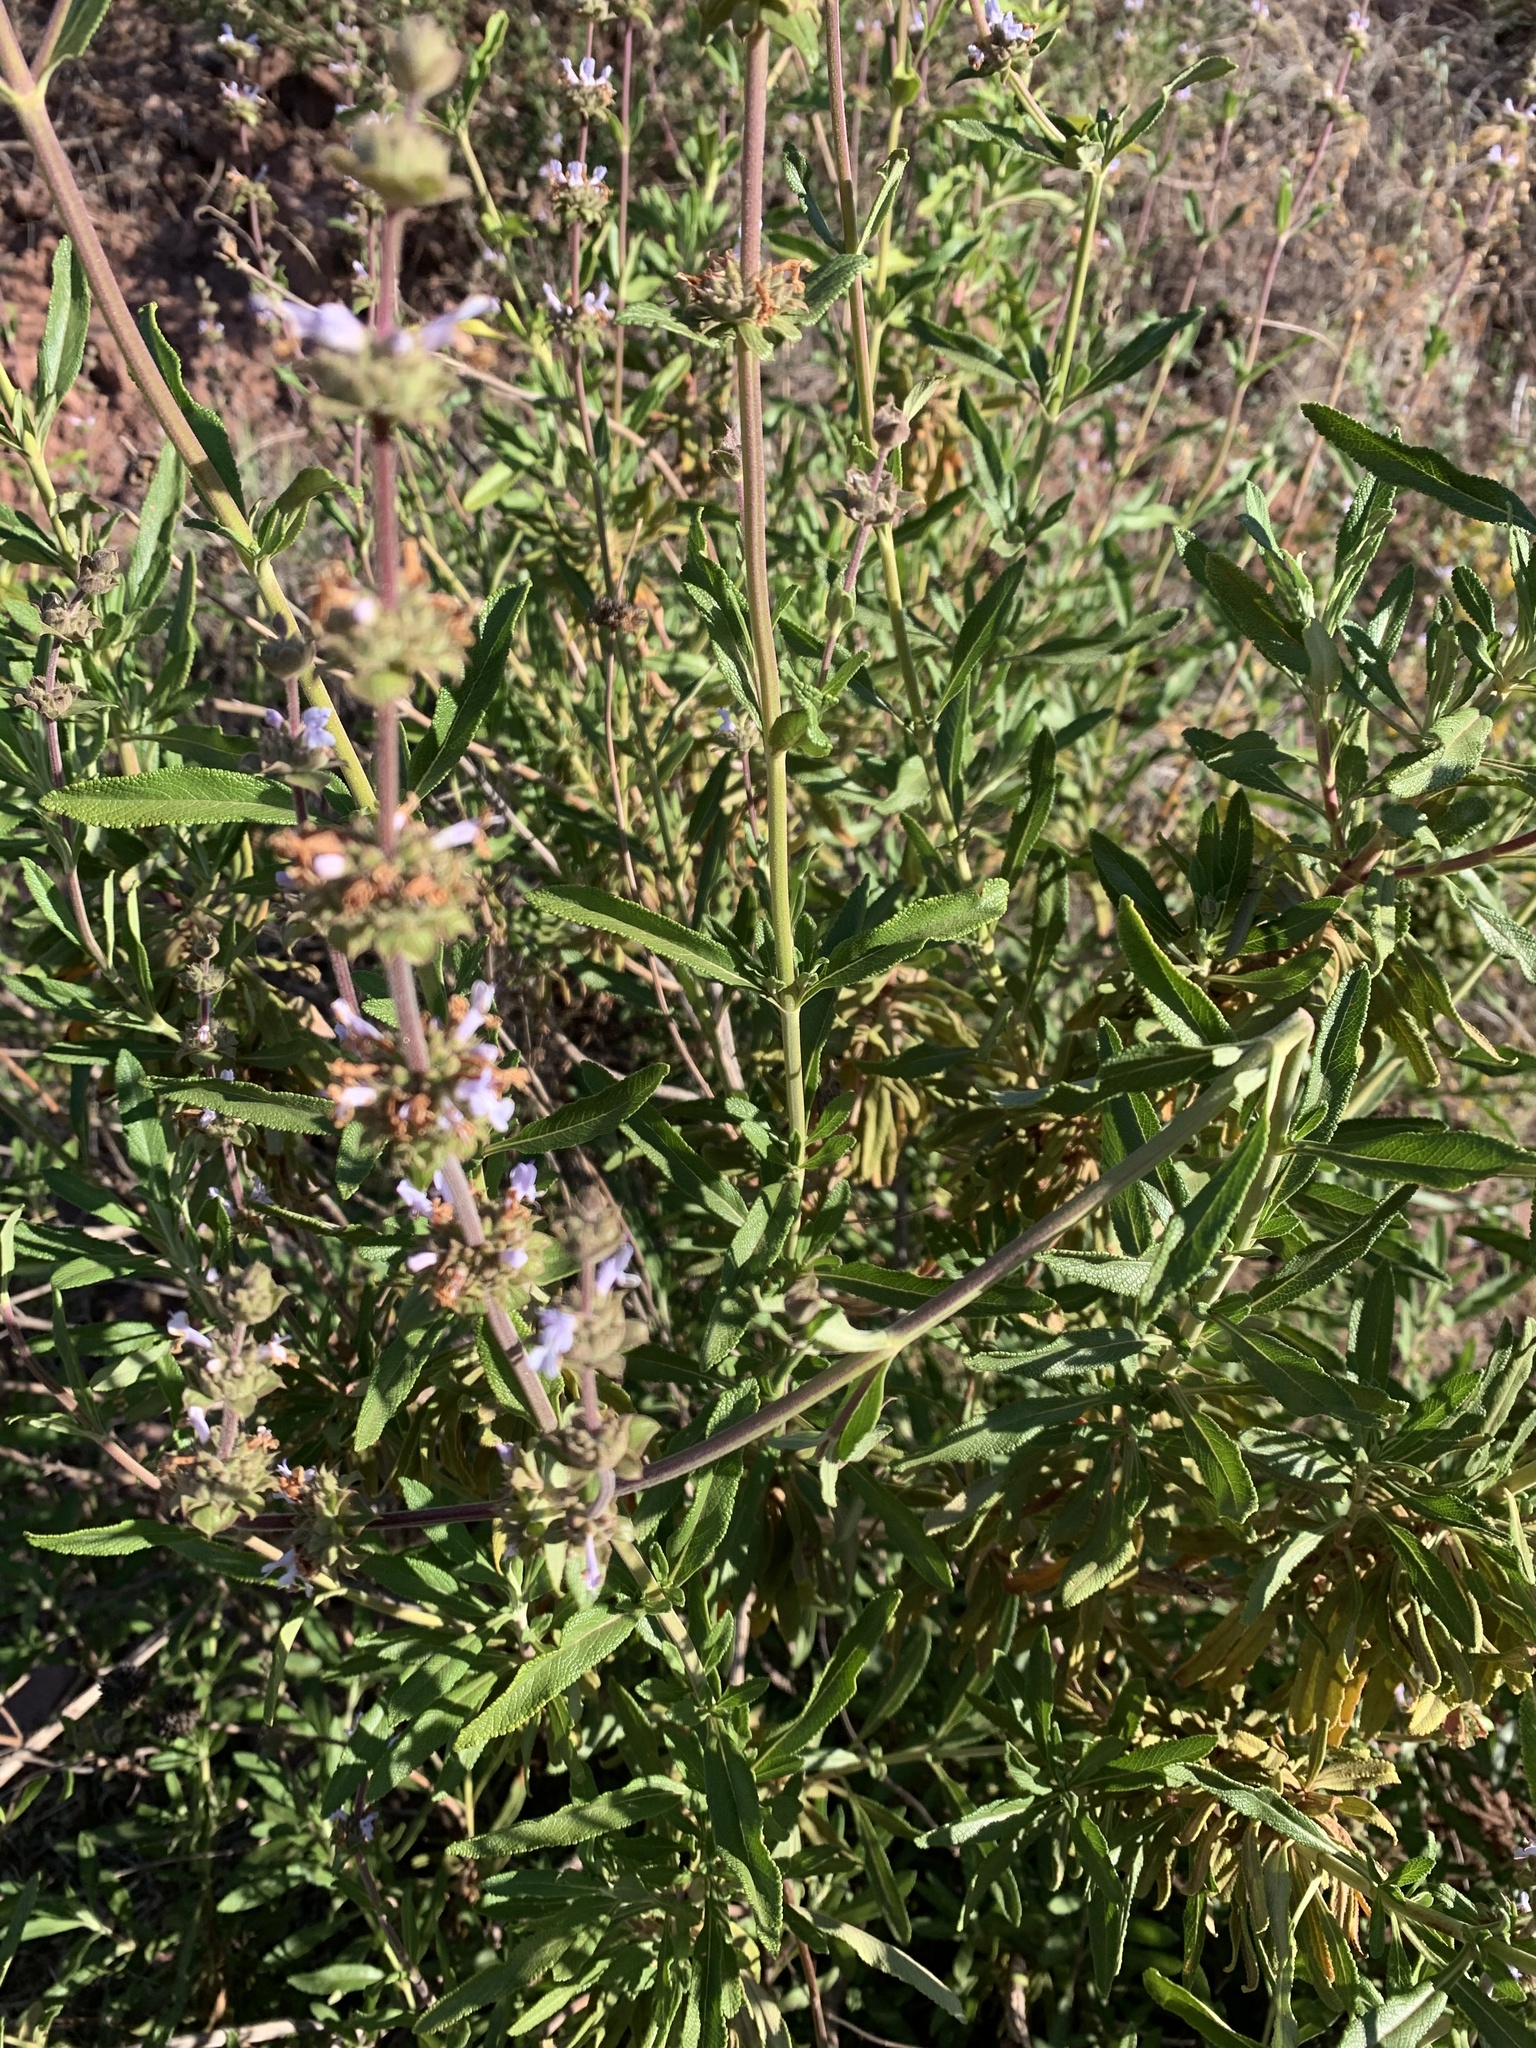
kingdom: Plantae
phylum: Tracheophyta
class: Magnoliopsida
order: Lamiales
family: Lamiaceae
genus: Salvia
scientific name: Salvia mellifera
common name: Black sage
